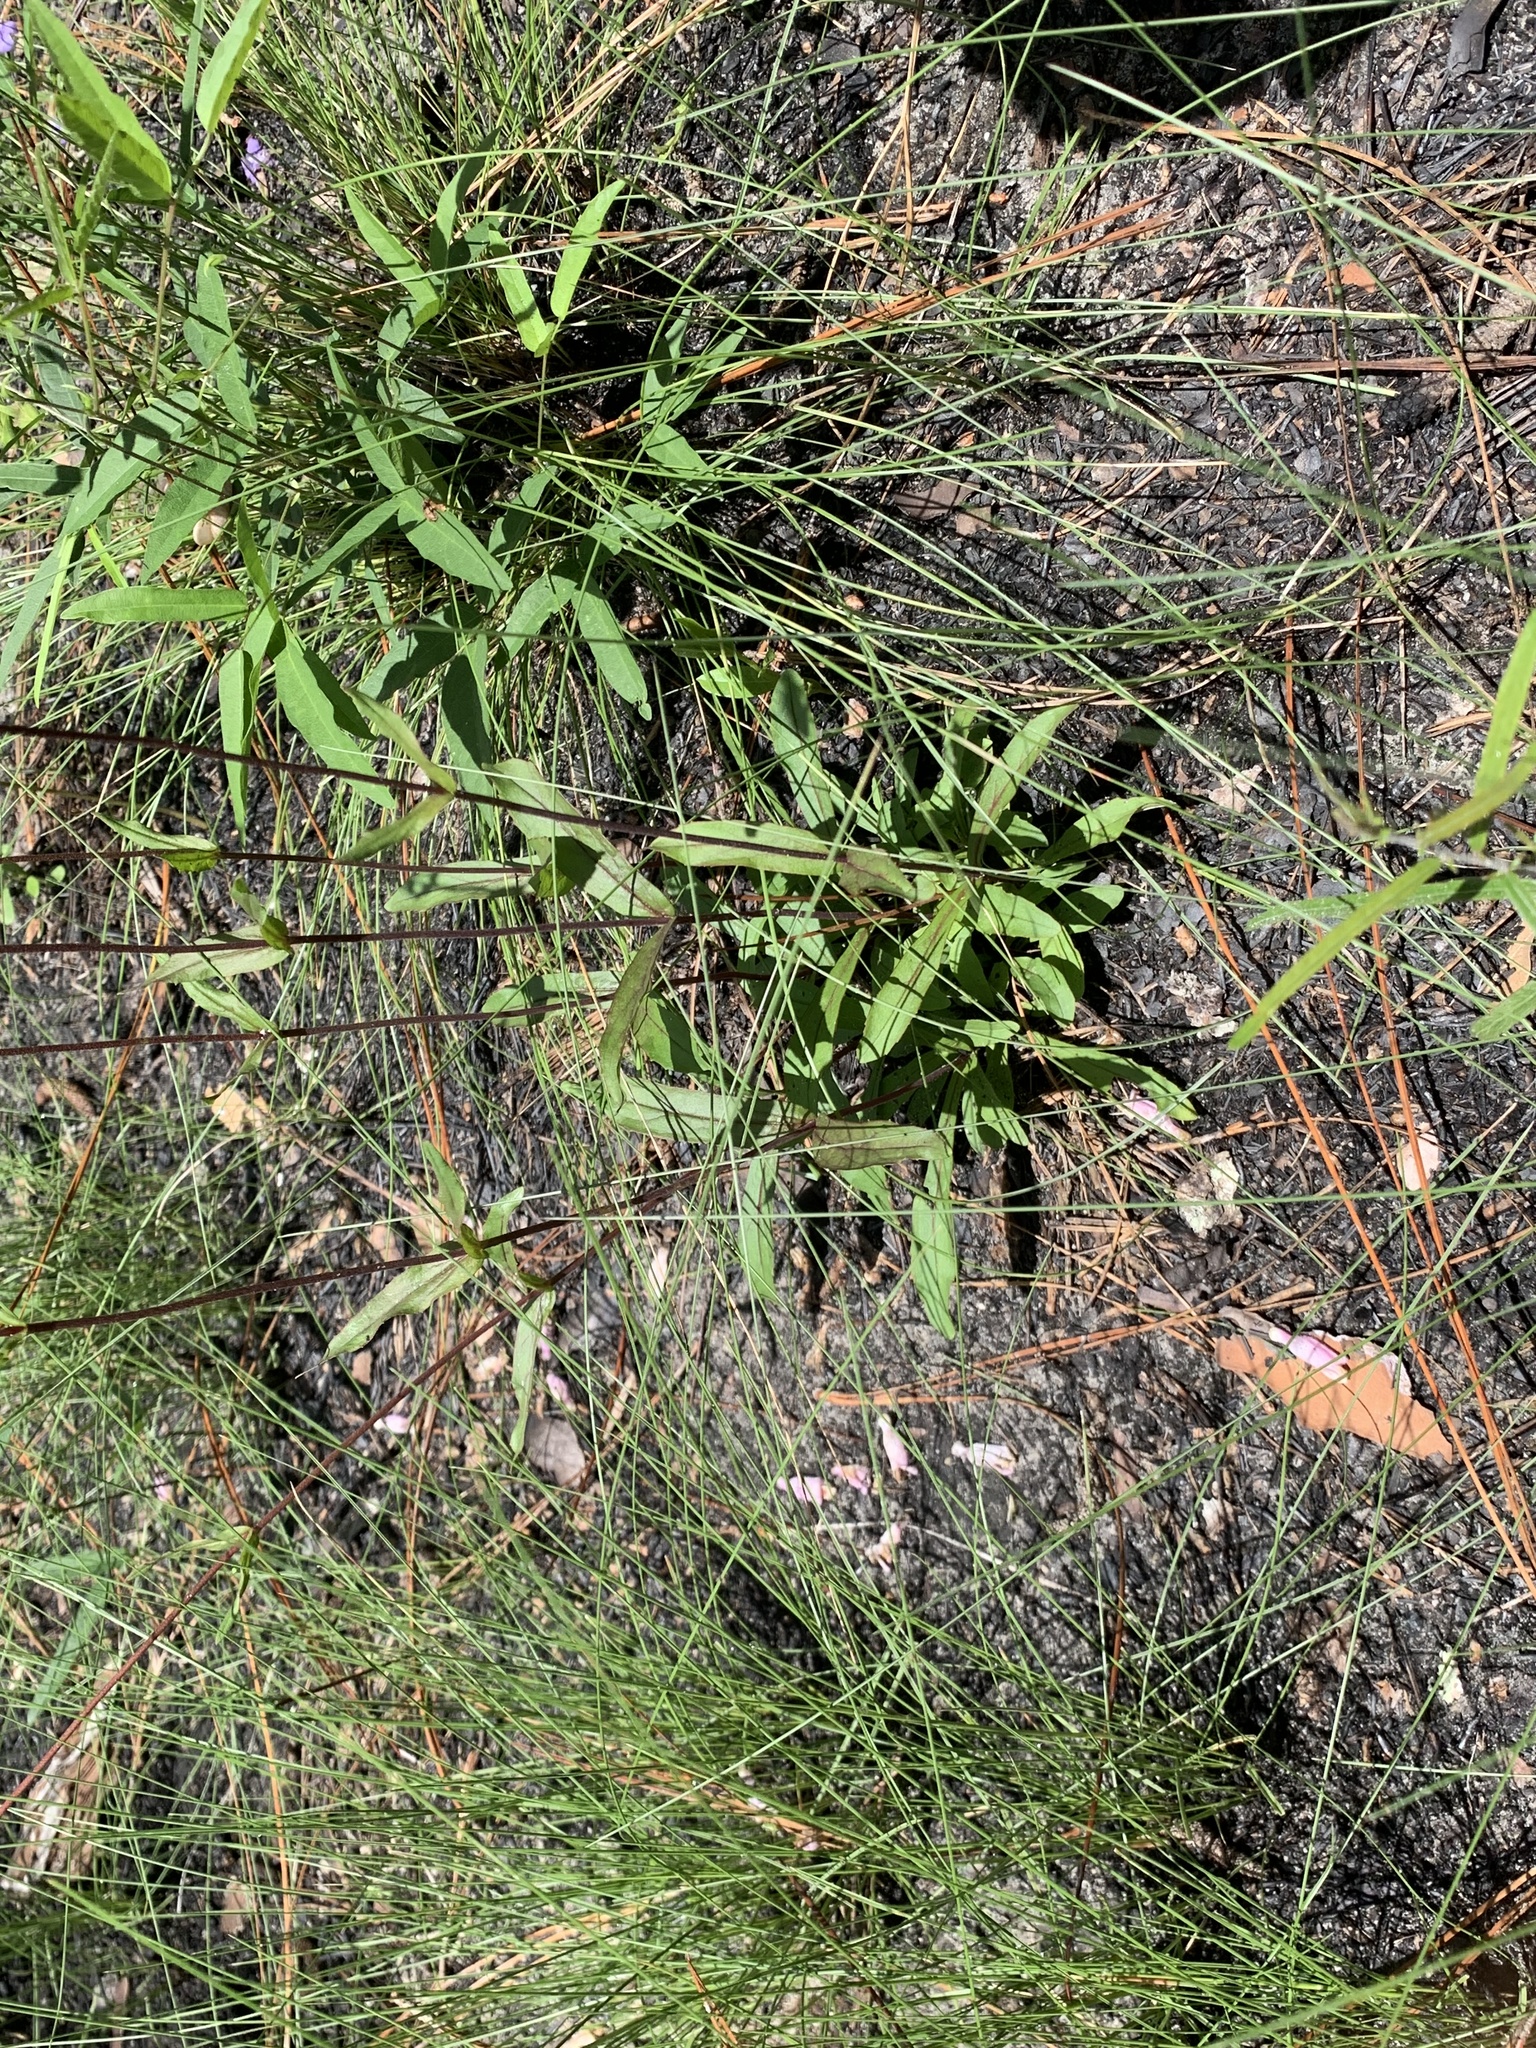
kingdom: Plantae
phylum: Tracheophyta
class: Magnoliopsida
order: Lamiales
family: Plantaginaceae
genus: Penstemon
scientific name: Penstemon australis
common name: Southeastern beardtongue
